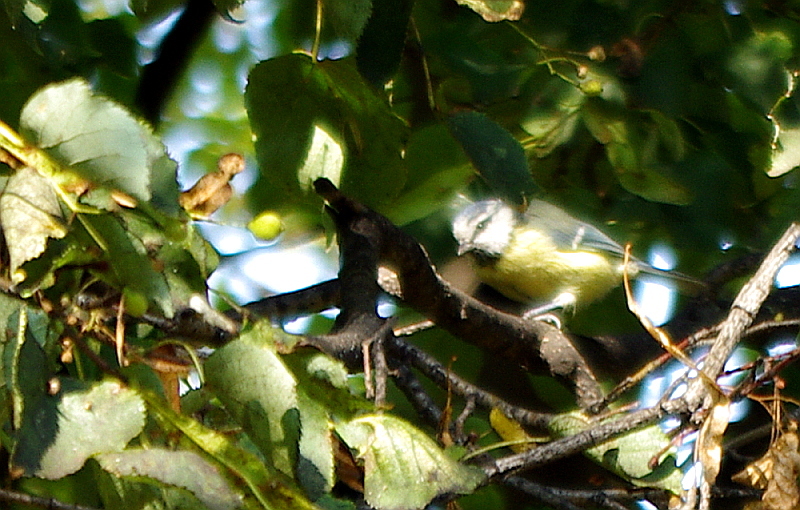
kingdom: Animalia
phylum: Chordata
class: Aves
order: Passeriformes
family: Paridae
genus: Cyanistes
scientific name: Cyanistes caeruleus
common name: Eurasian blue tit
